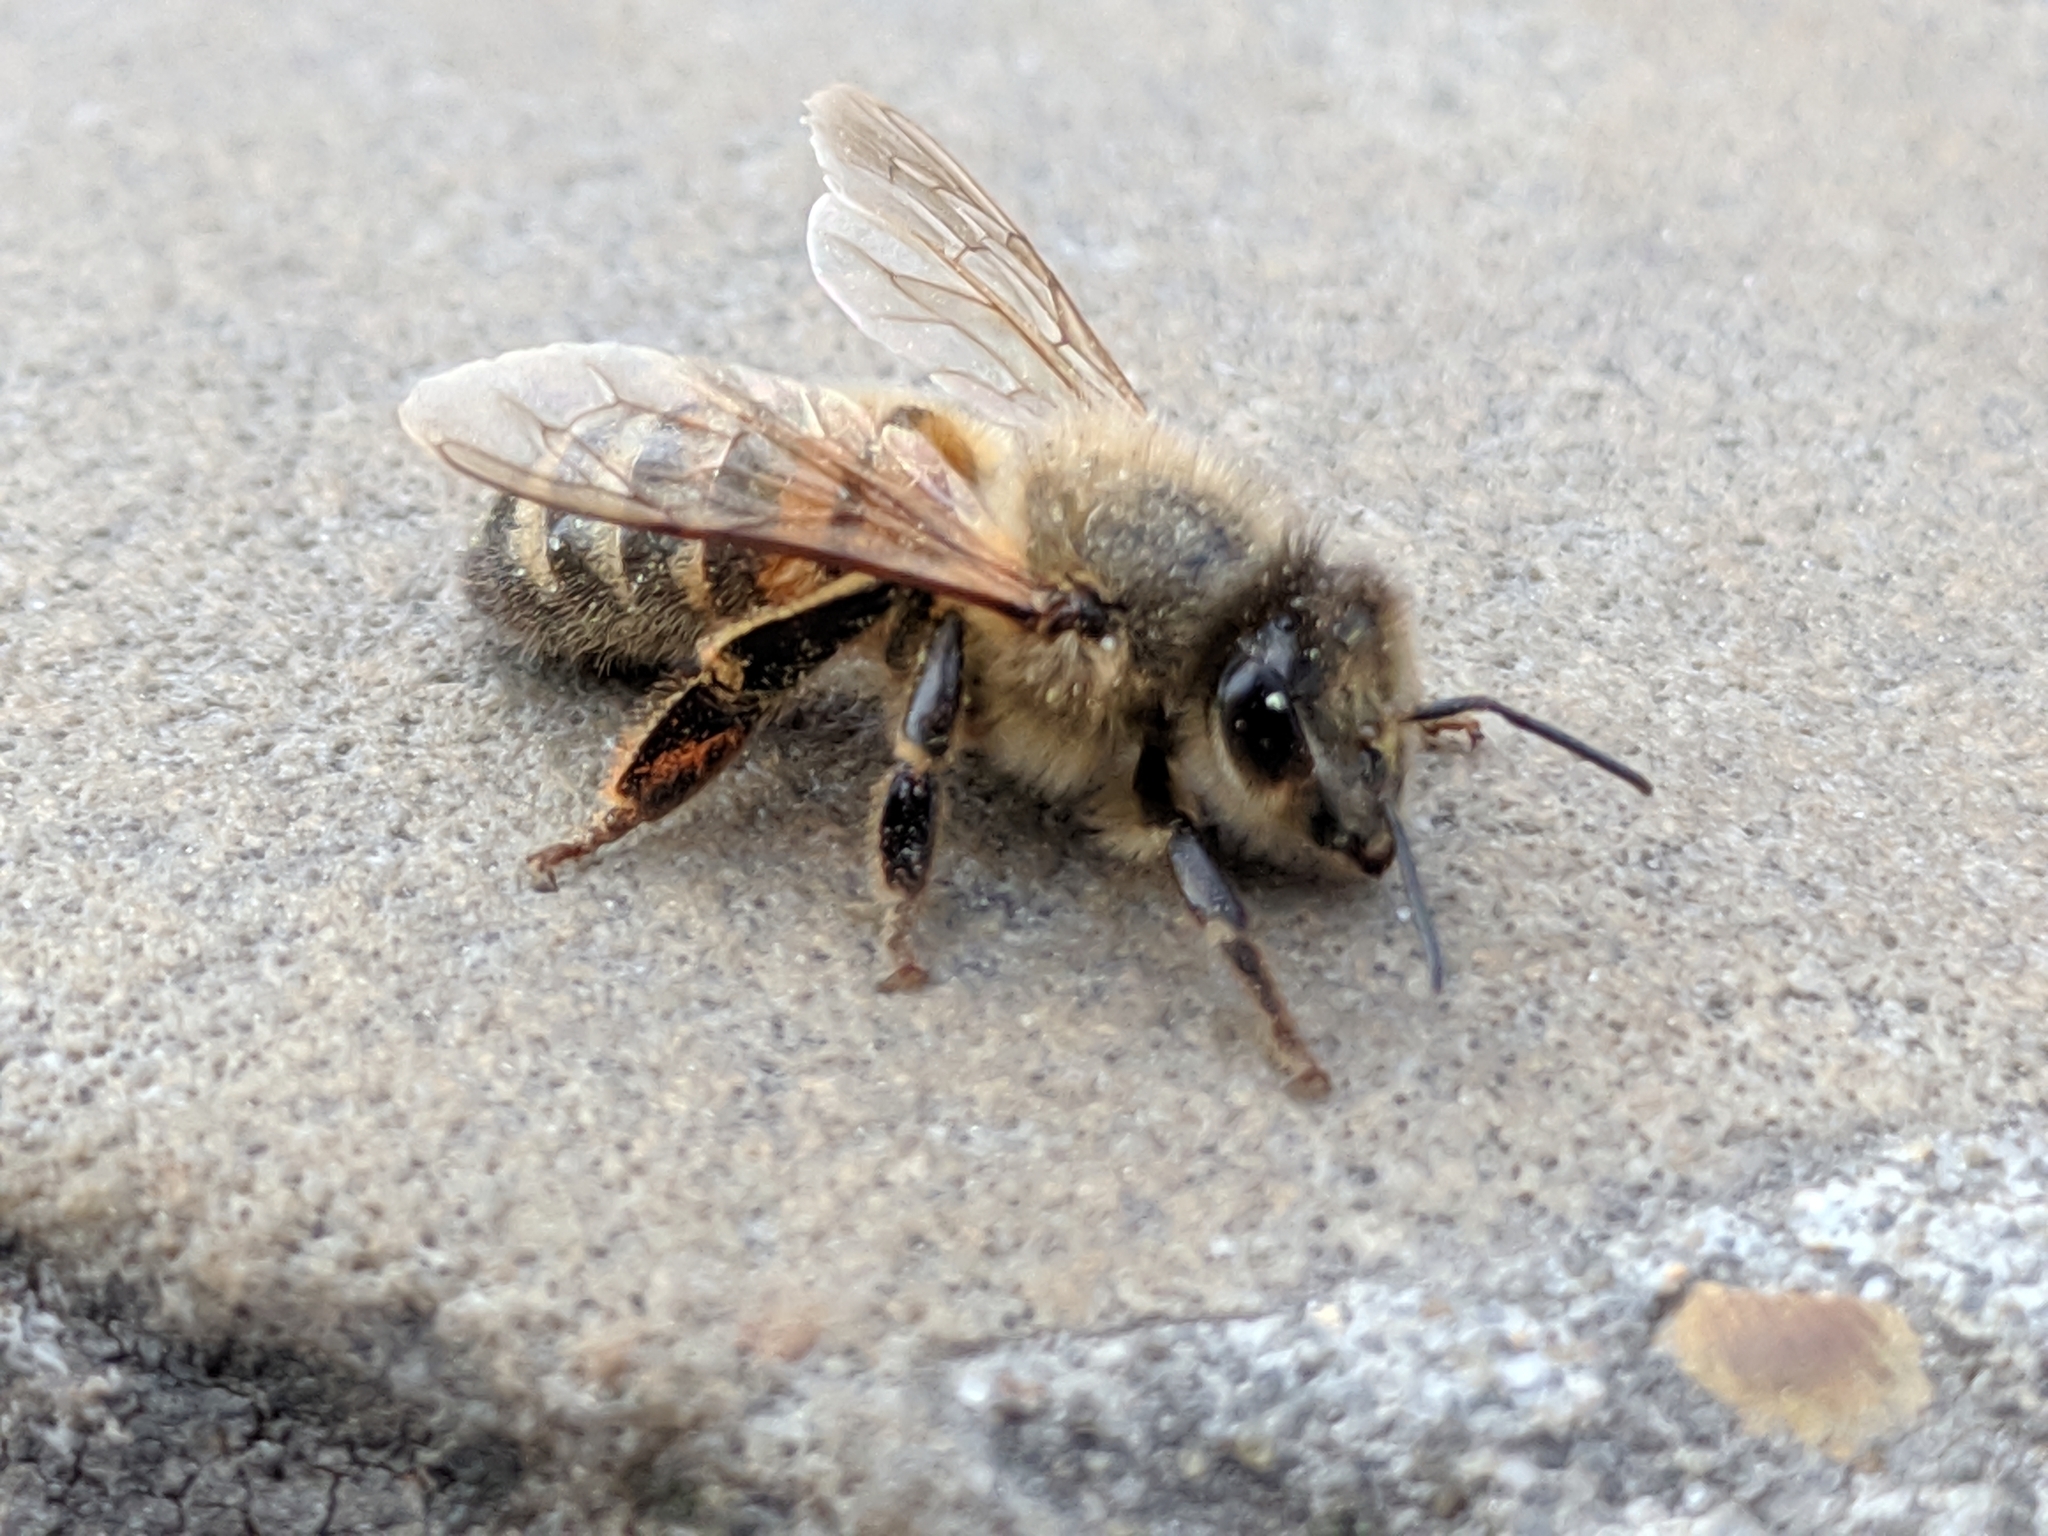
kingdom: Animalia
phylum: Arthropoda
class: Insecta
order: Hymenoptera
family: Apidae
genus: Apis
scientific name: Apis mellifera
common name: Honey bee
